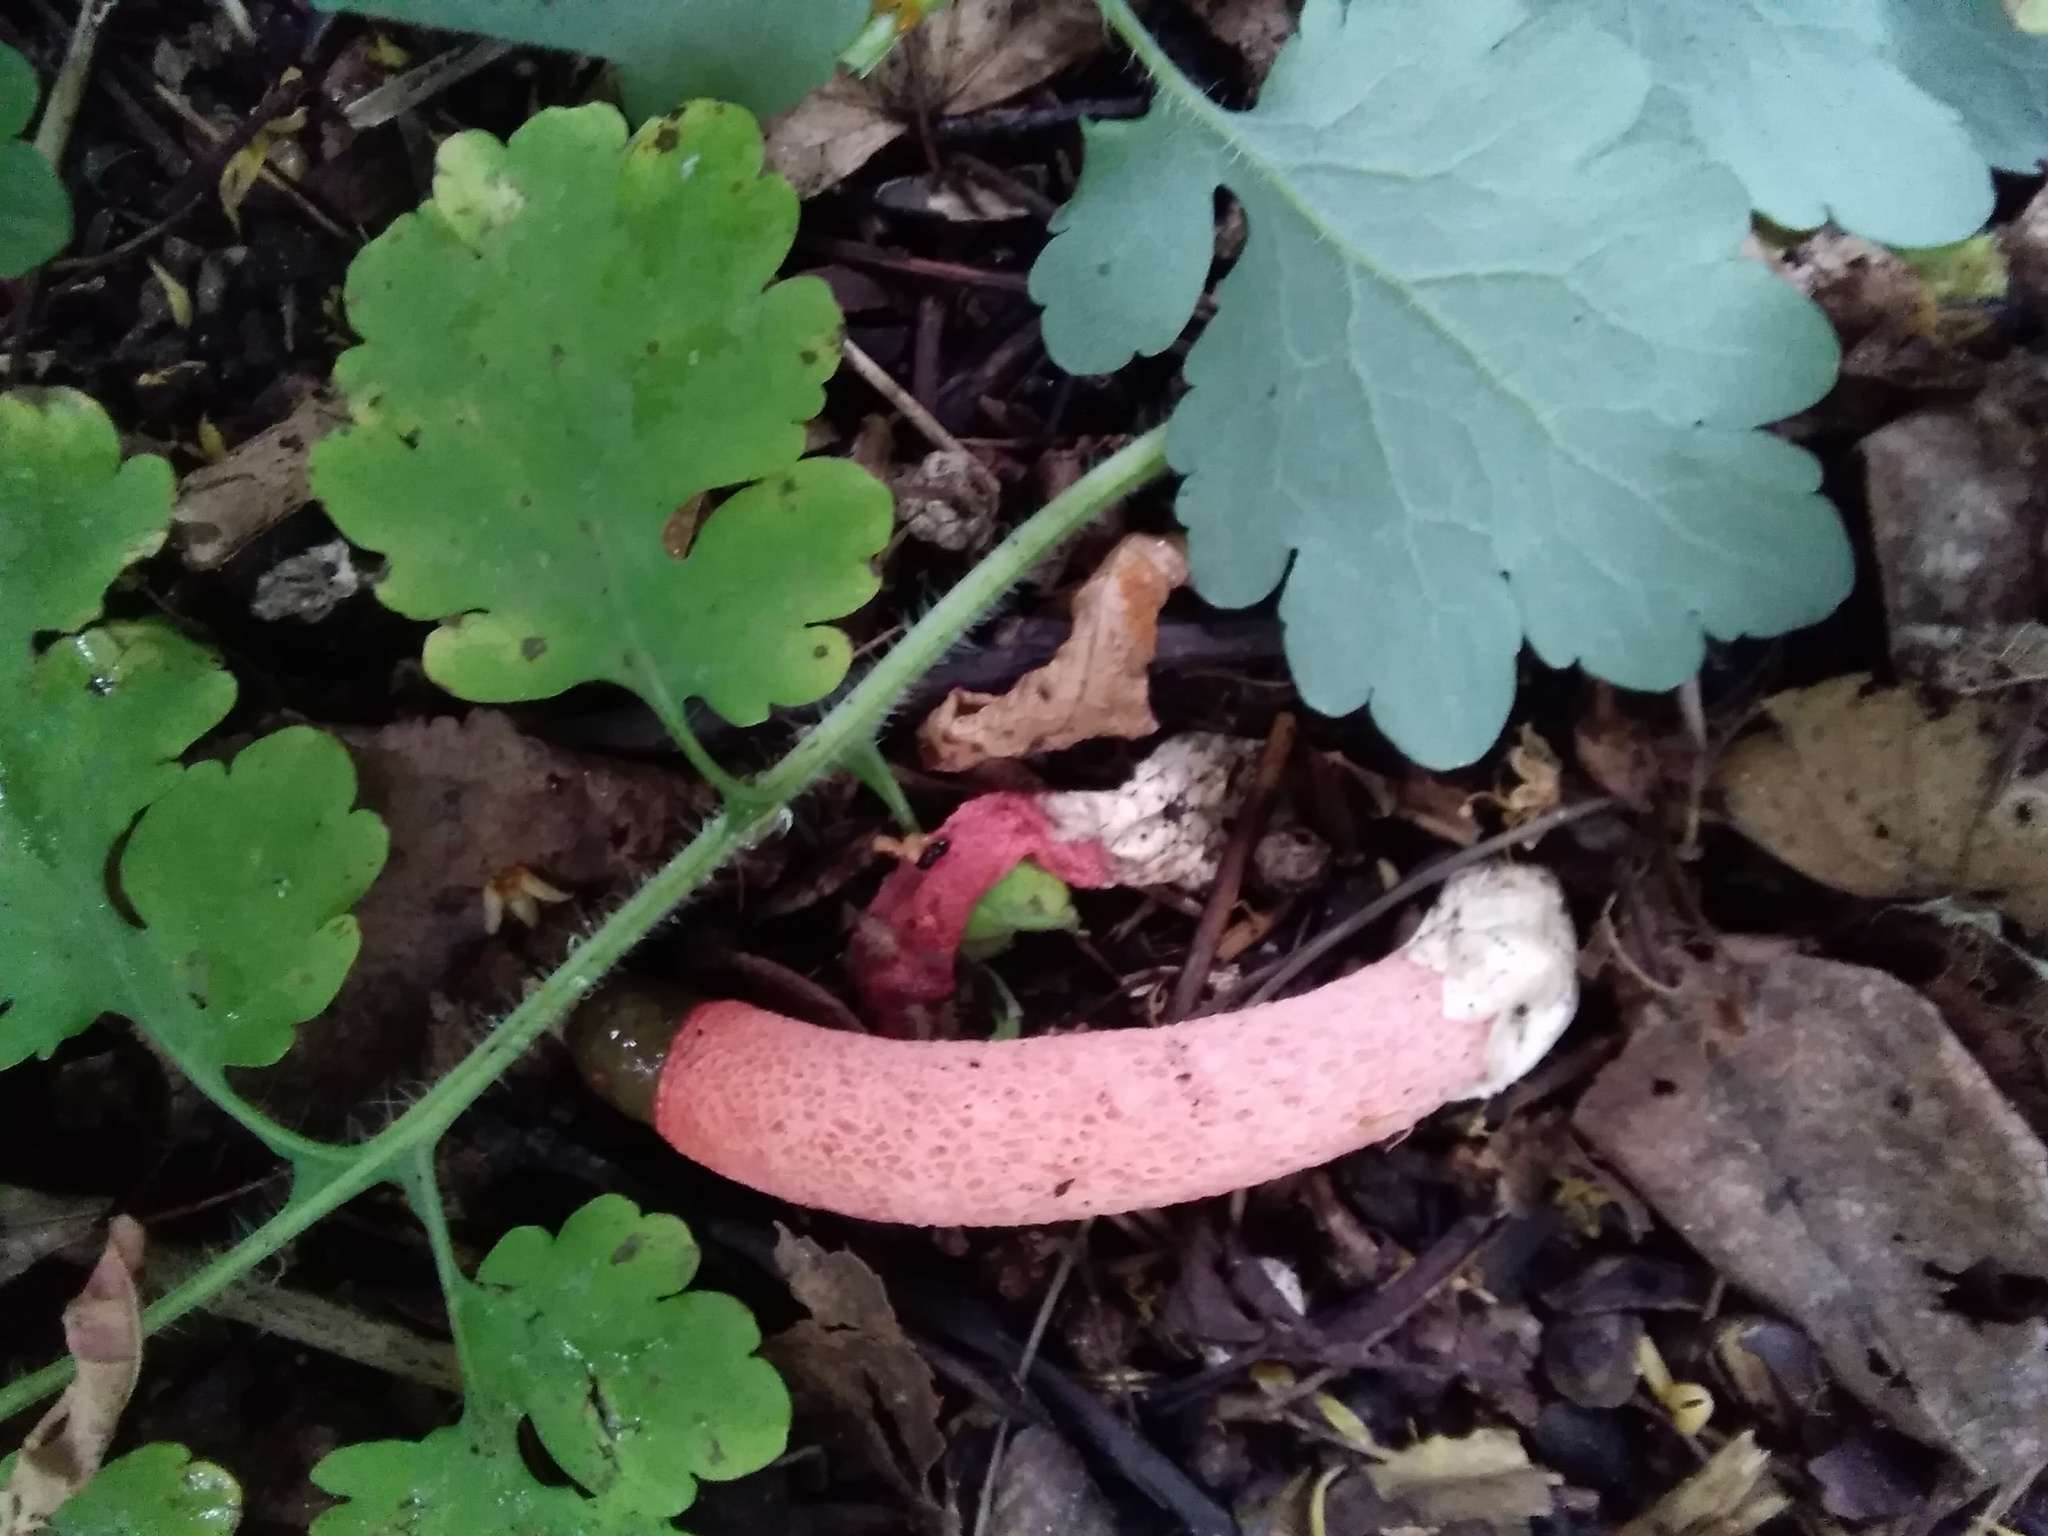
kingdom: Fungi
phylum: Basidiomycota
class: Agaricomycetes
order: Phallales
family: Phallaceae
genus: Mutinus
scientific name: Mutinus ravenelii
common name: Red stinkhorn
